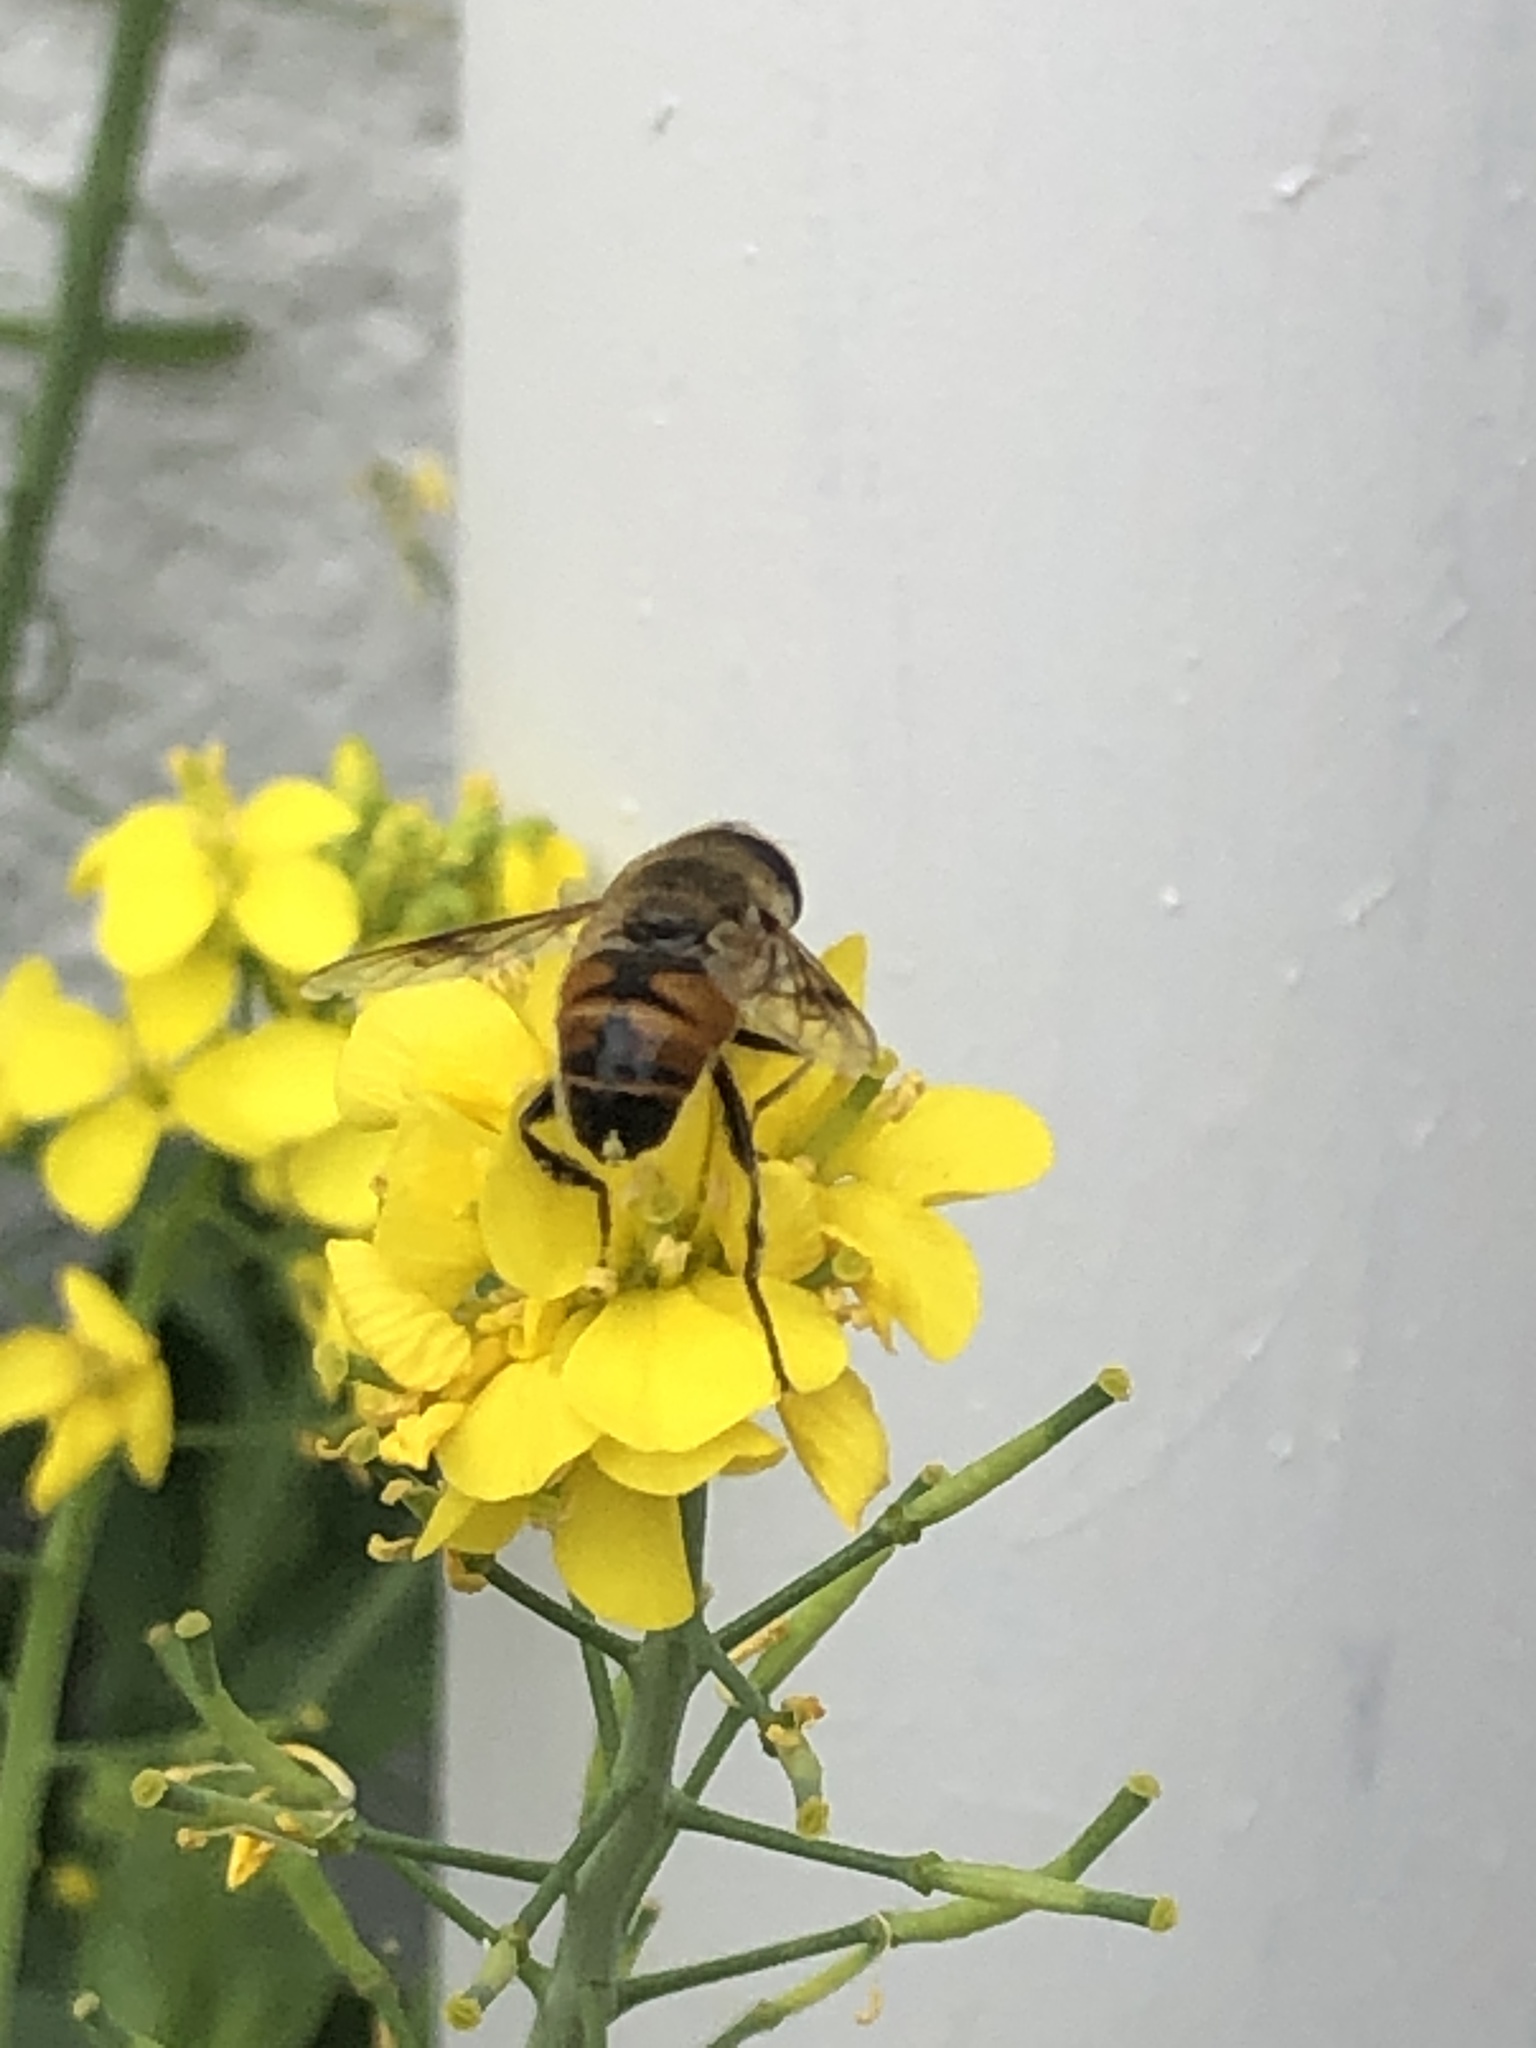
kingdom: Animalia
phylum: Arthropoda
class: Insecta
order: Diptera
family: Syrphidae
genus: Eristalis
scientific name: Eristalis tenax
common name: Drone fly
